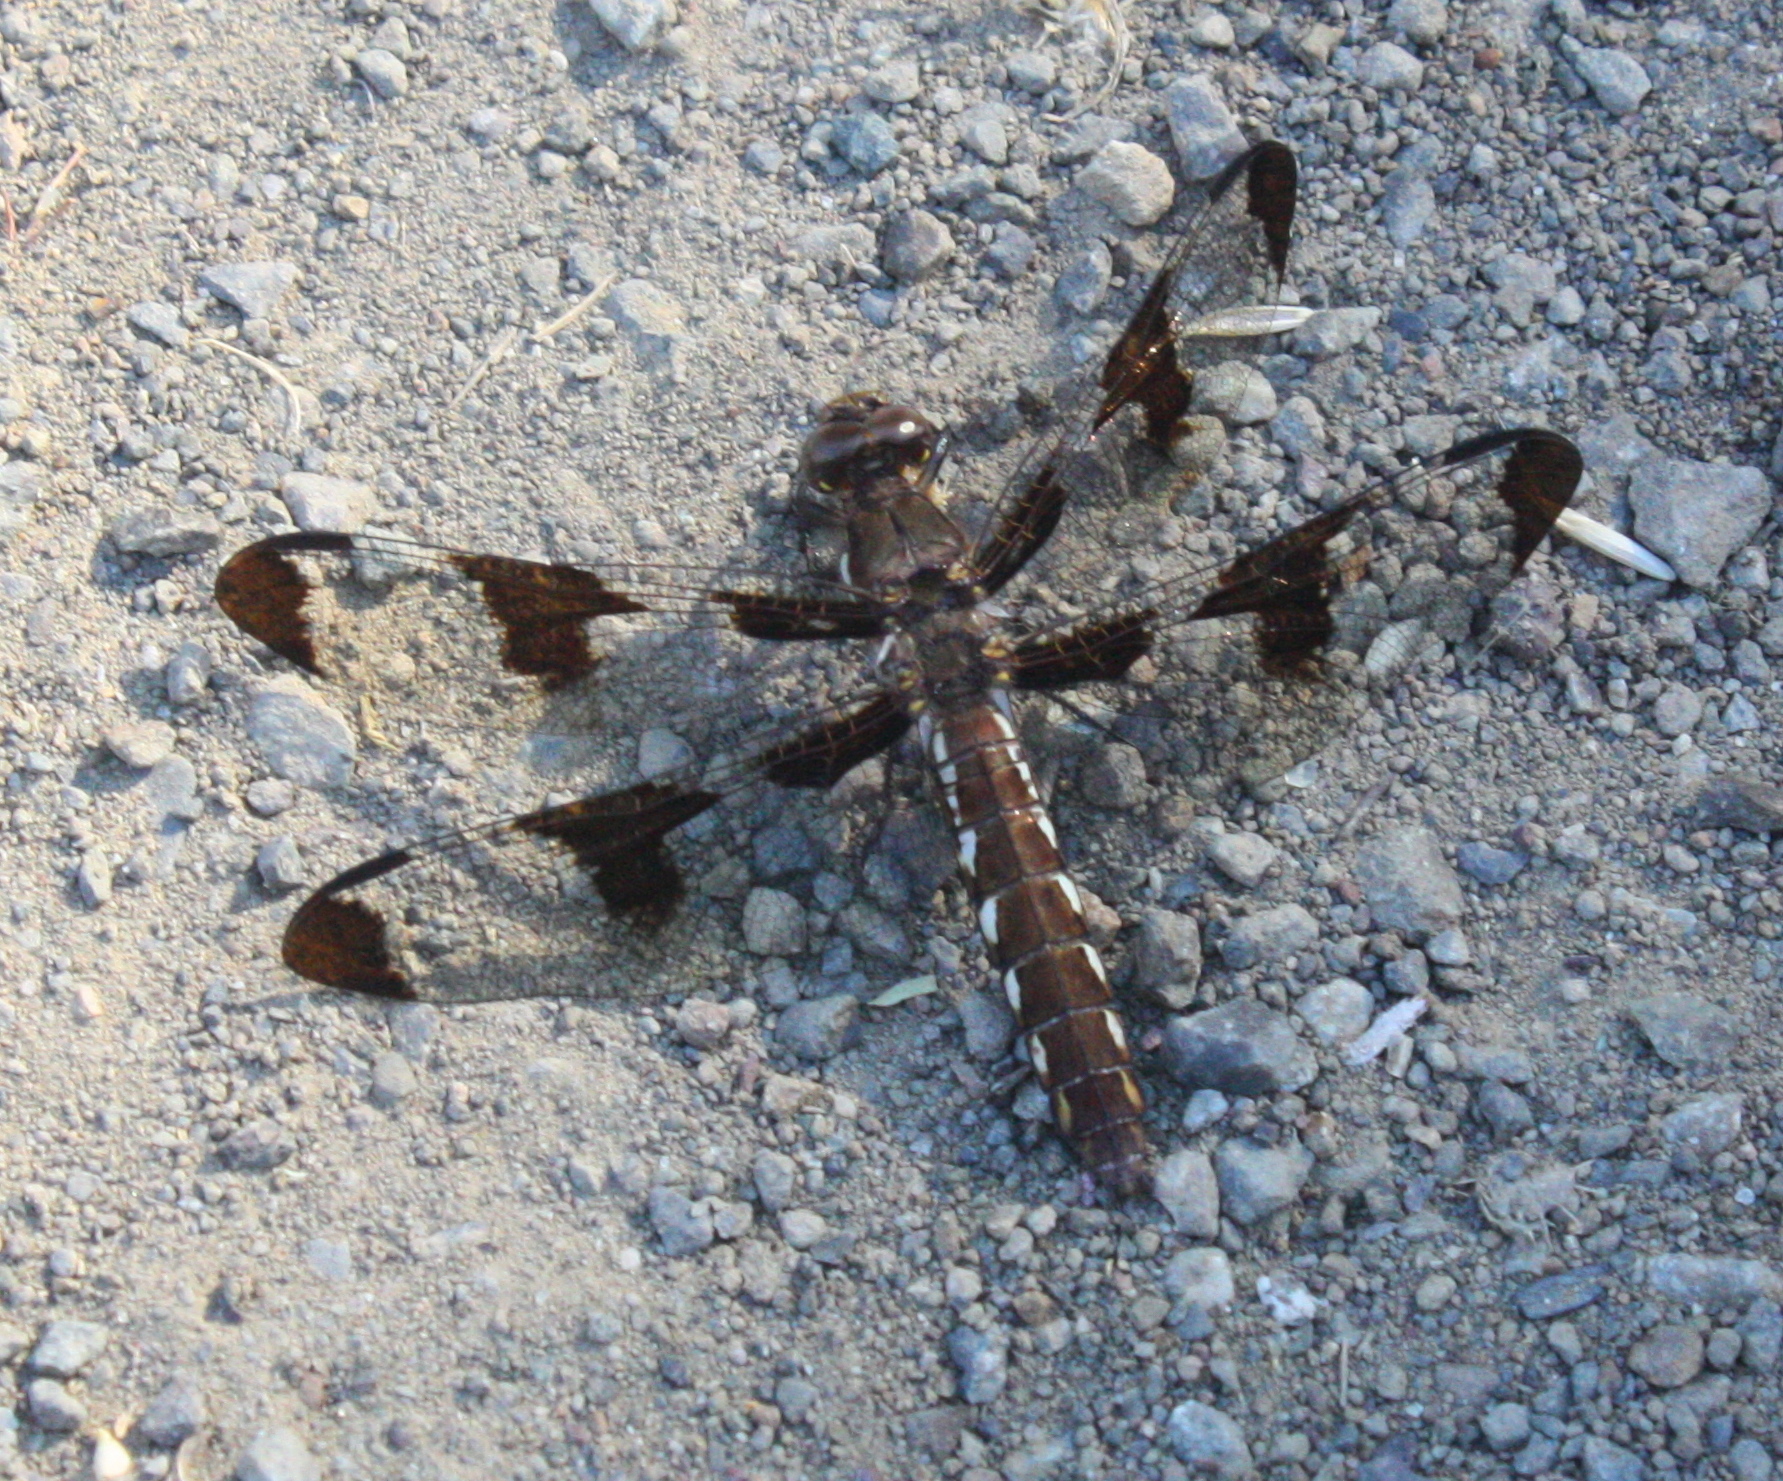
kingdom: Animalia
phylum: Arthropoda
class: Insecta
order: Odonata
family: Libellulidae
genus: Plathemis
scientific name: Plathemis lydia
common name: Common whitetail
